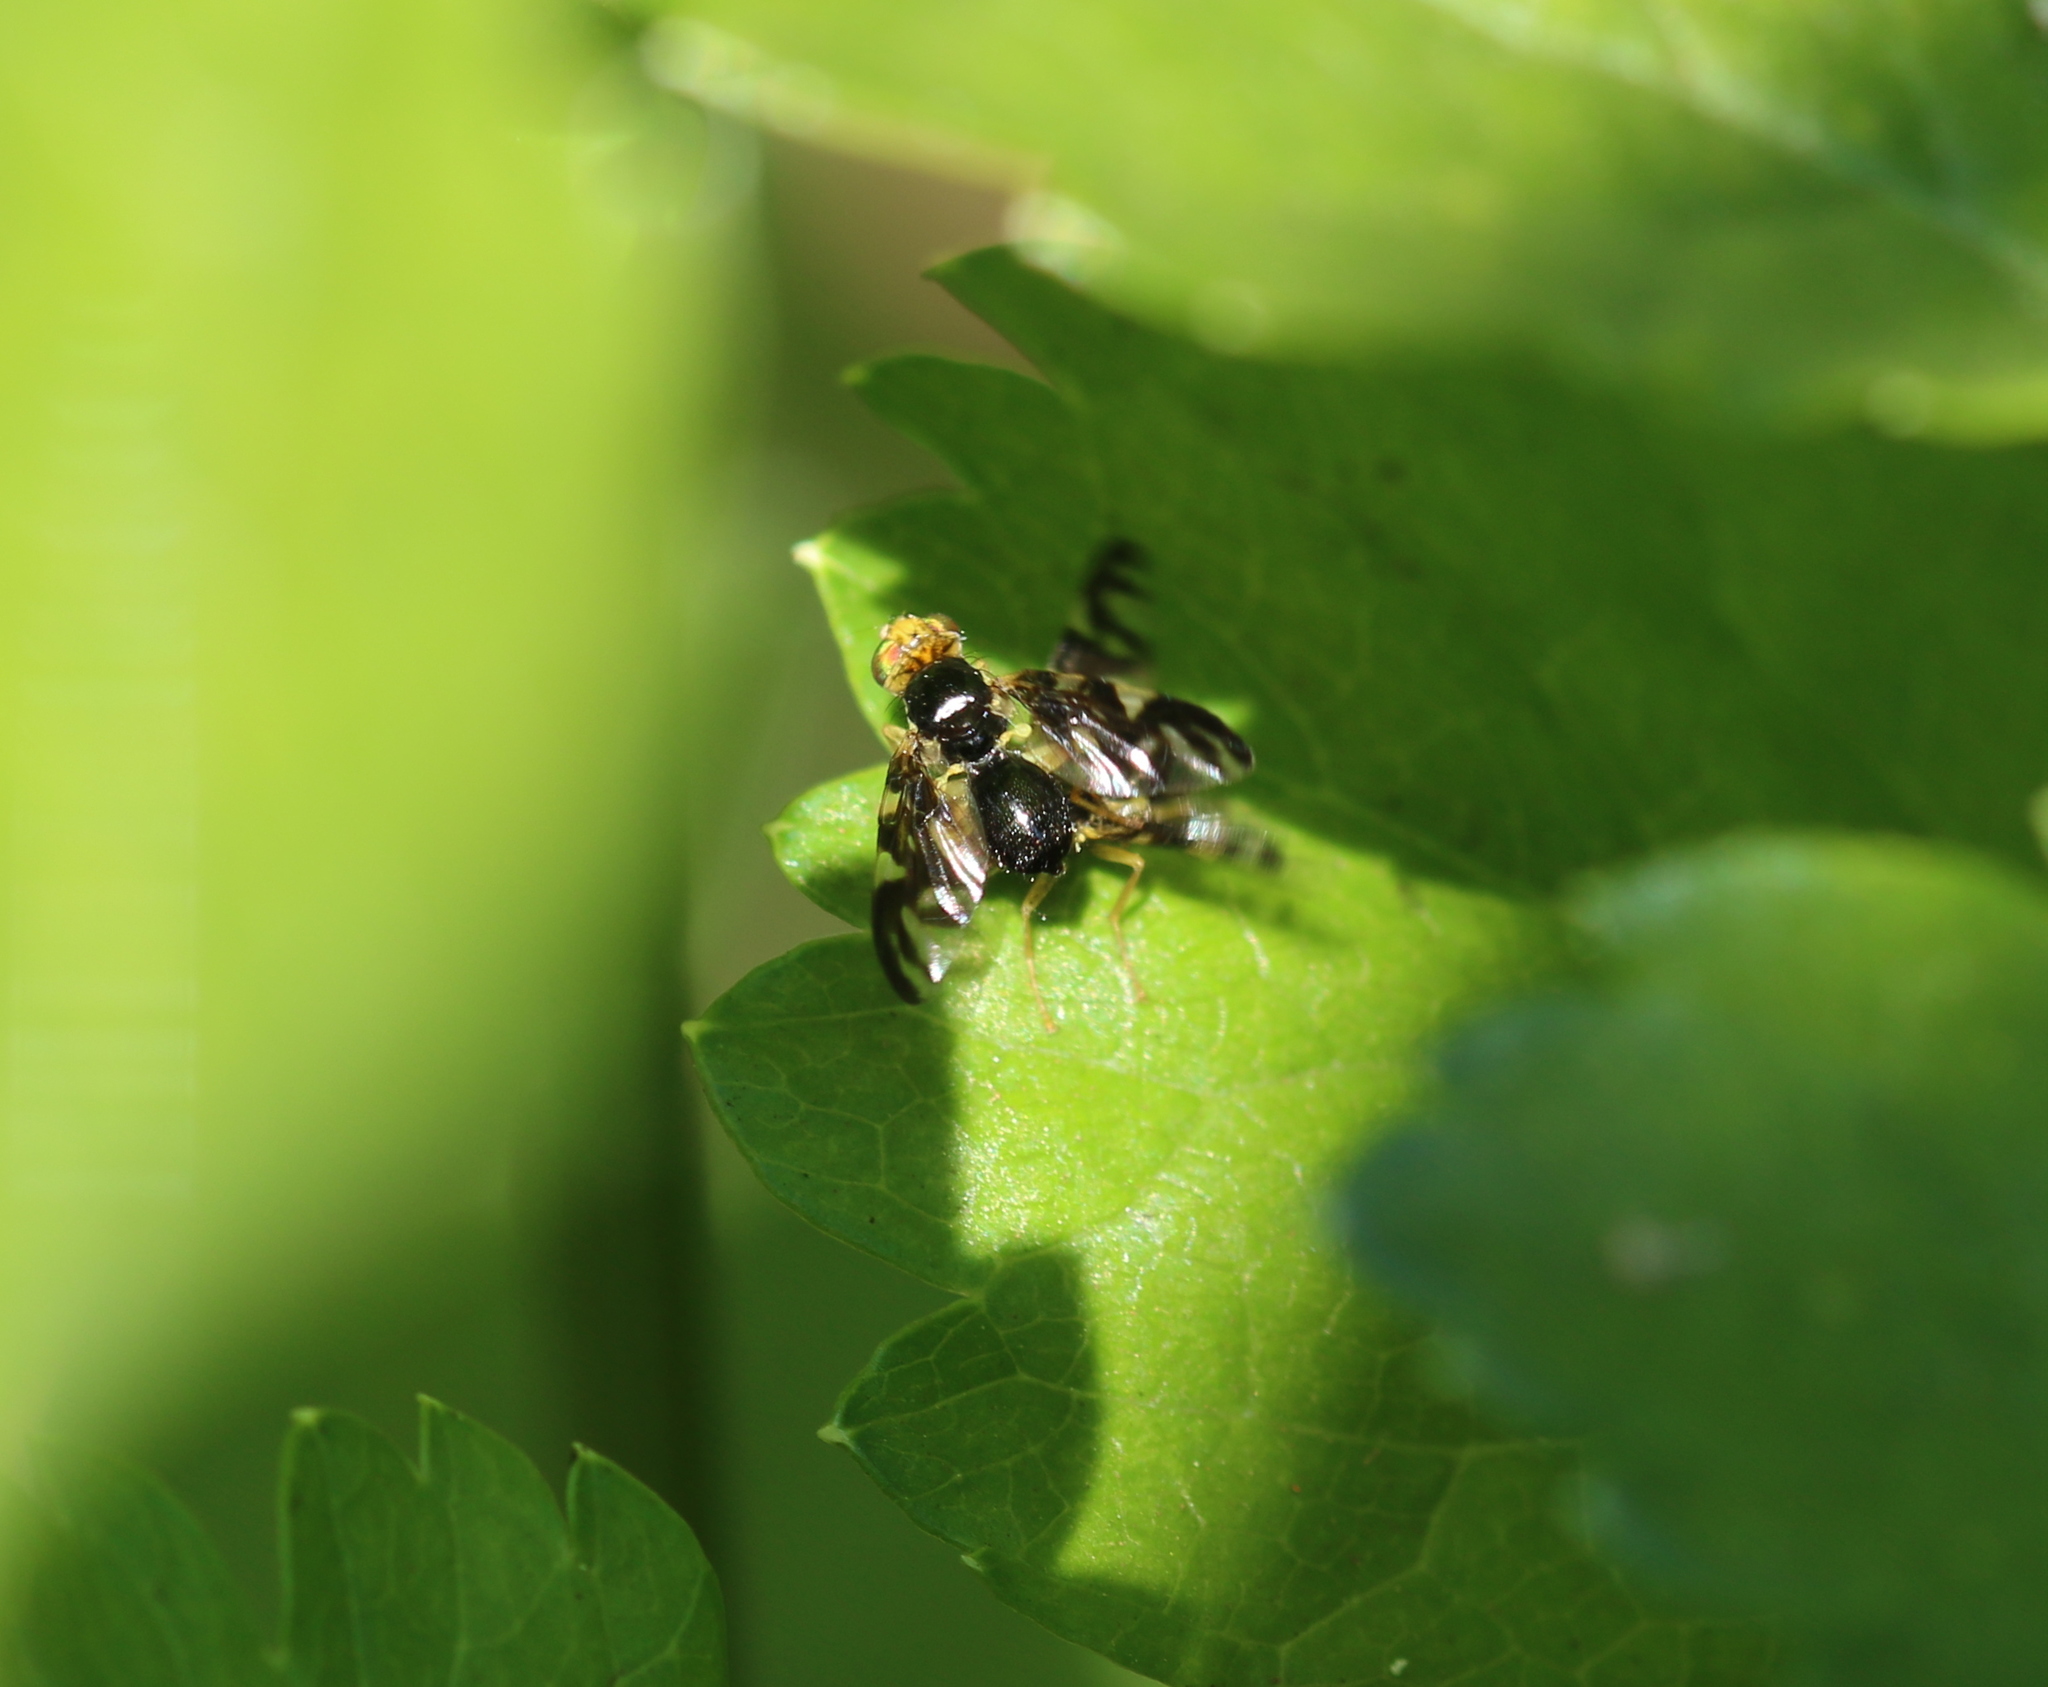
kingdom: Animalia
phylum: Arthropoda
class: Insecta
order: Diptera
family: Tephritidae
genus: Euleia
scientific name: Euleia heraclei
